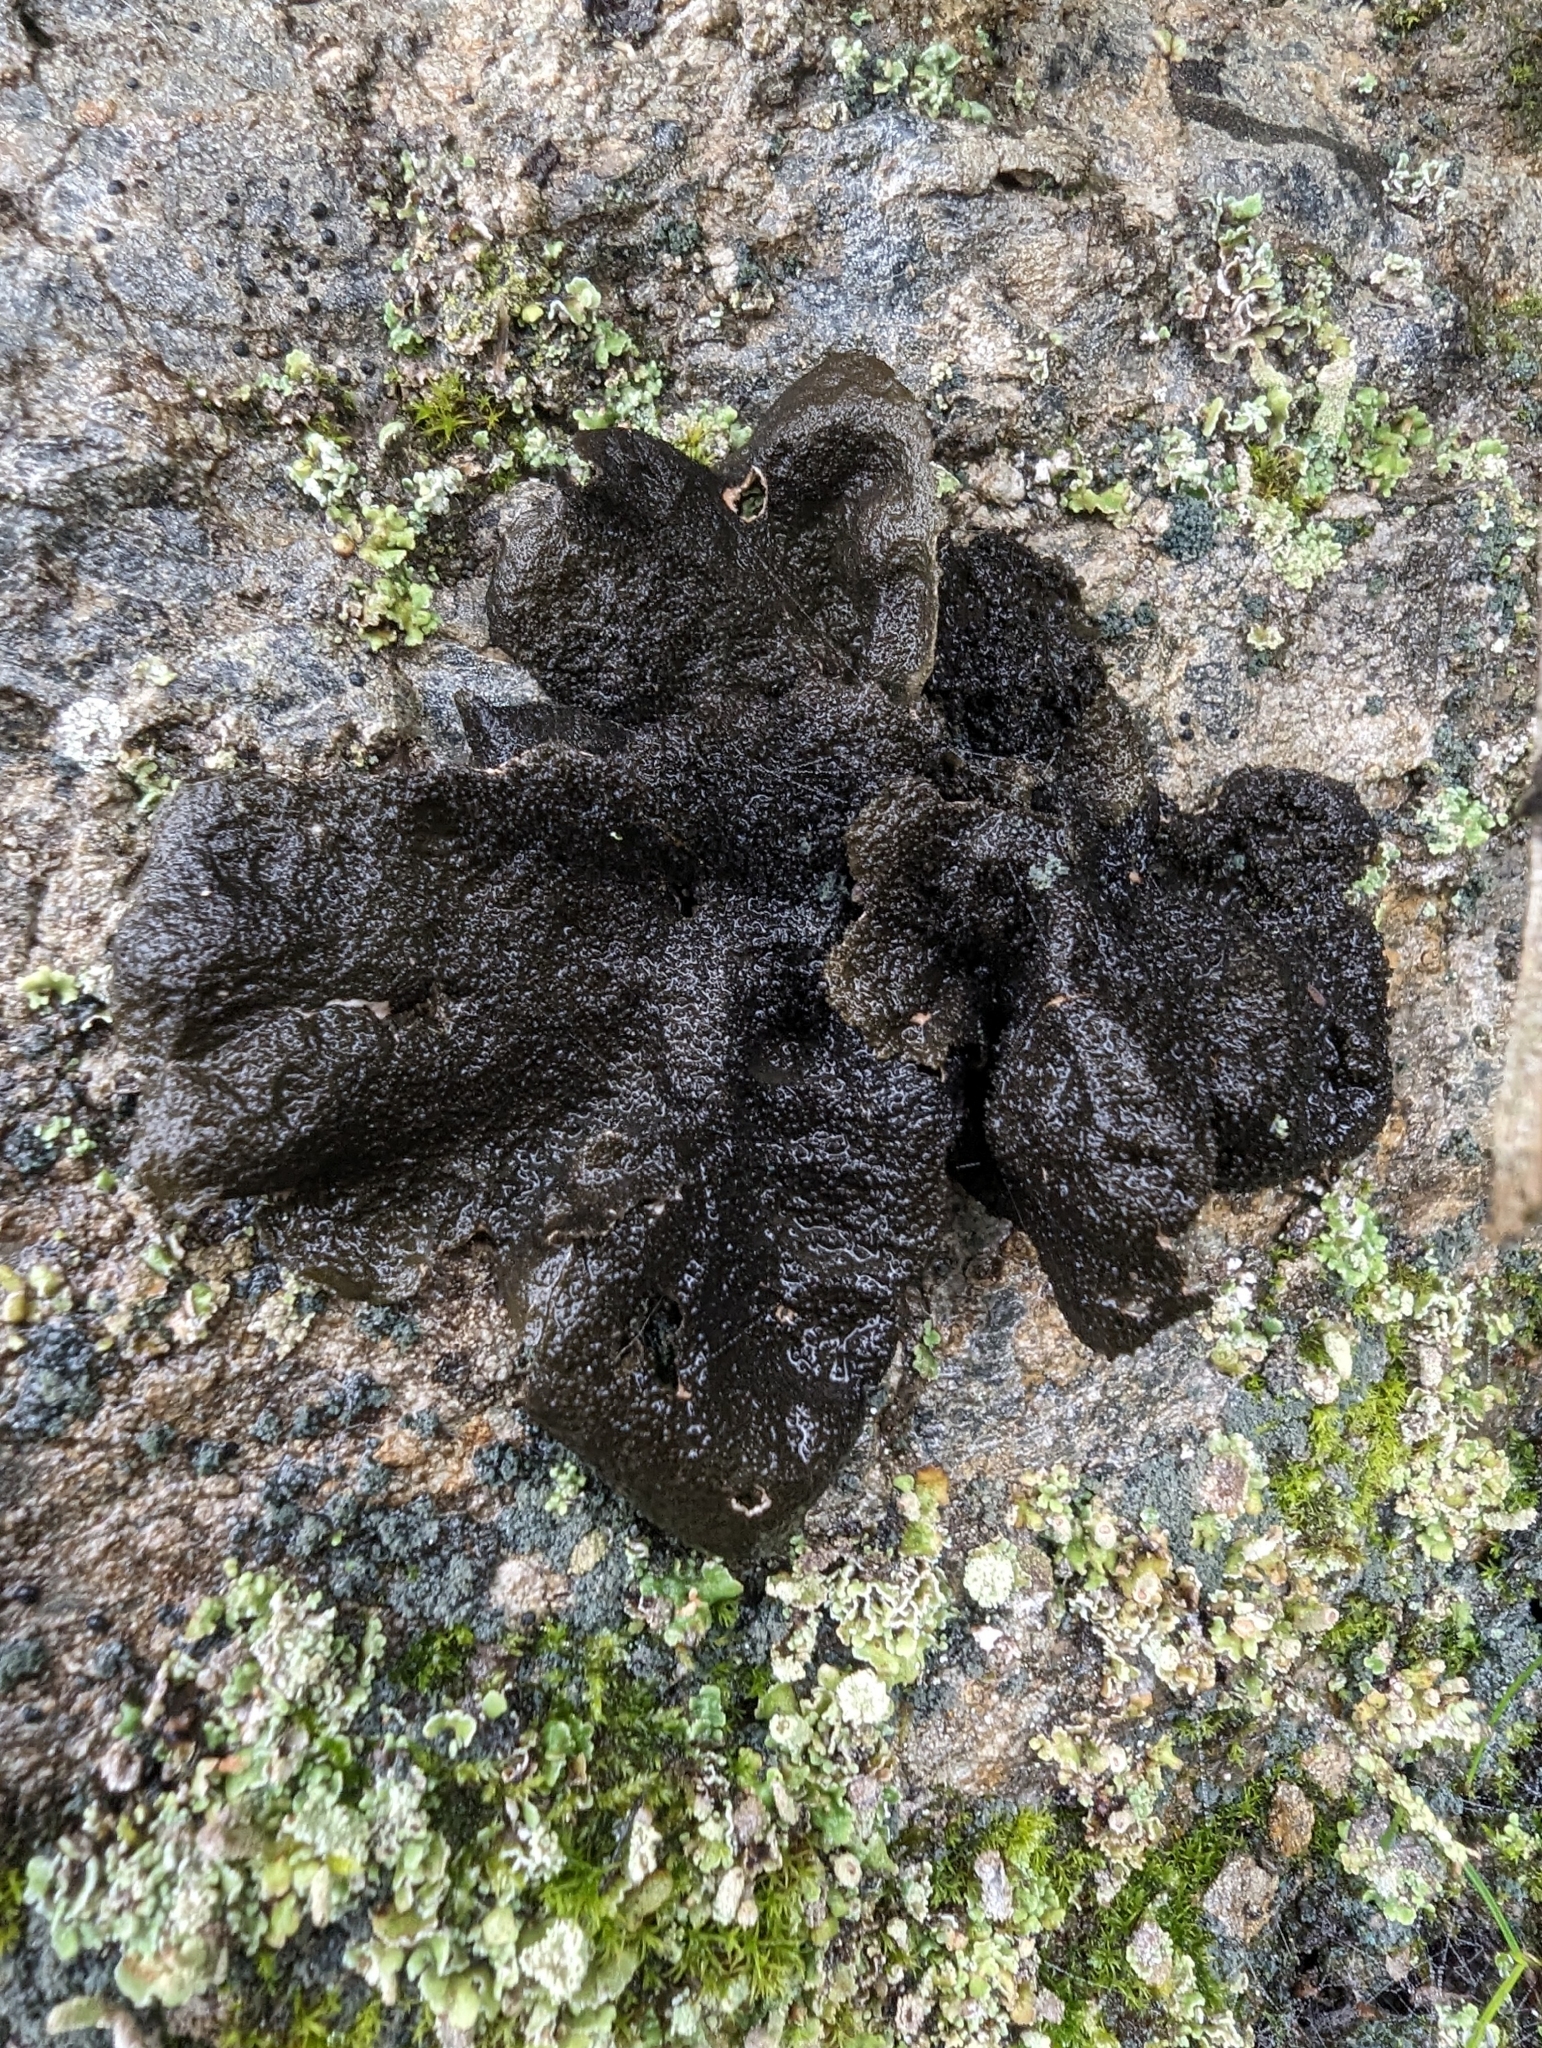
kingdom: Fungi
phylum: Ascomycota
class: Lecanoromycetes
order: Peltigerales
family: Lobariaceae
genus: Sticta
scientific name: Sticta
